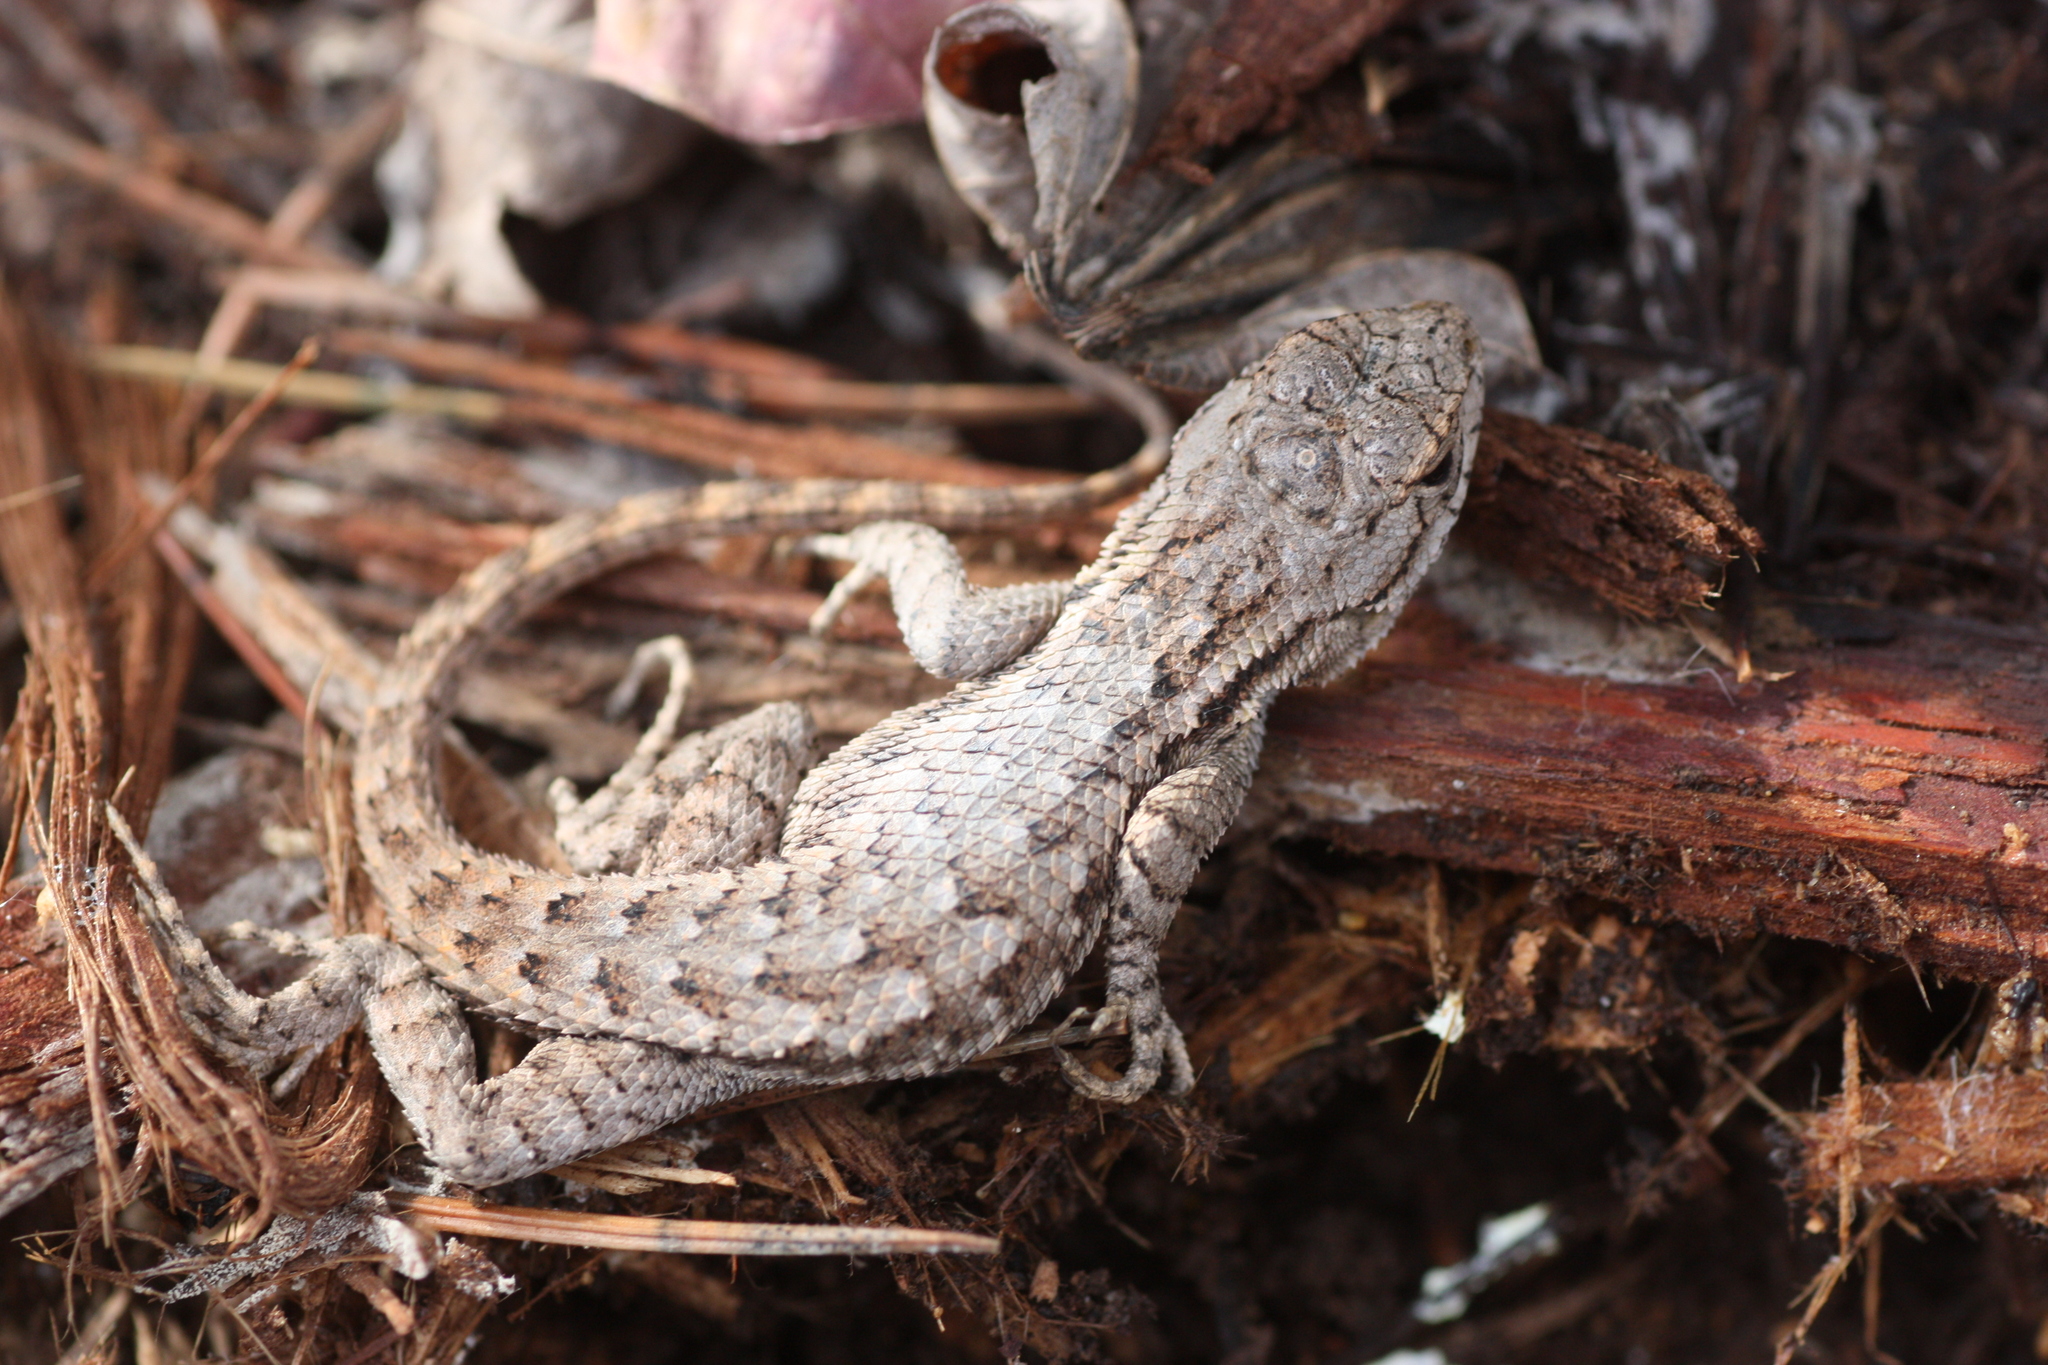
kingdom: Animalia
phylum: Chordata
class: Squamata
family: Phrynosomatidae
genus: Sceloporus
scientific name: Sceloporus occidentalis
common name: Western fence lizard
